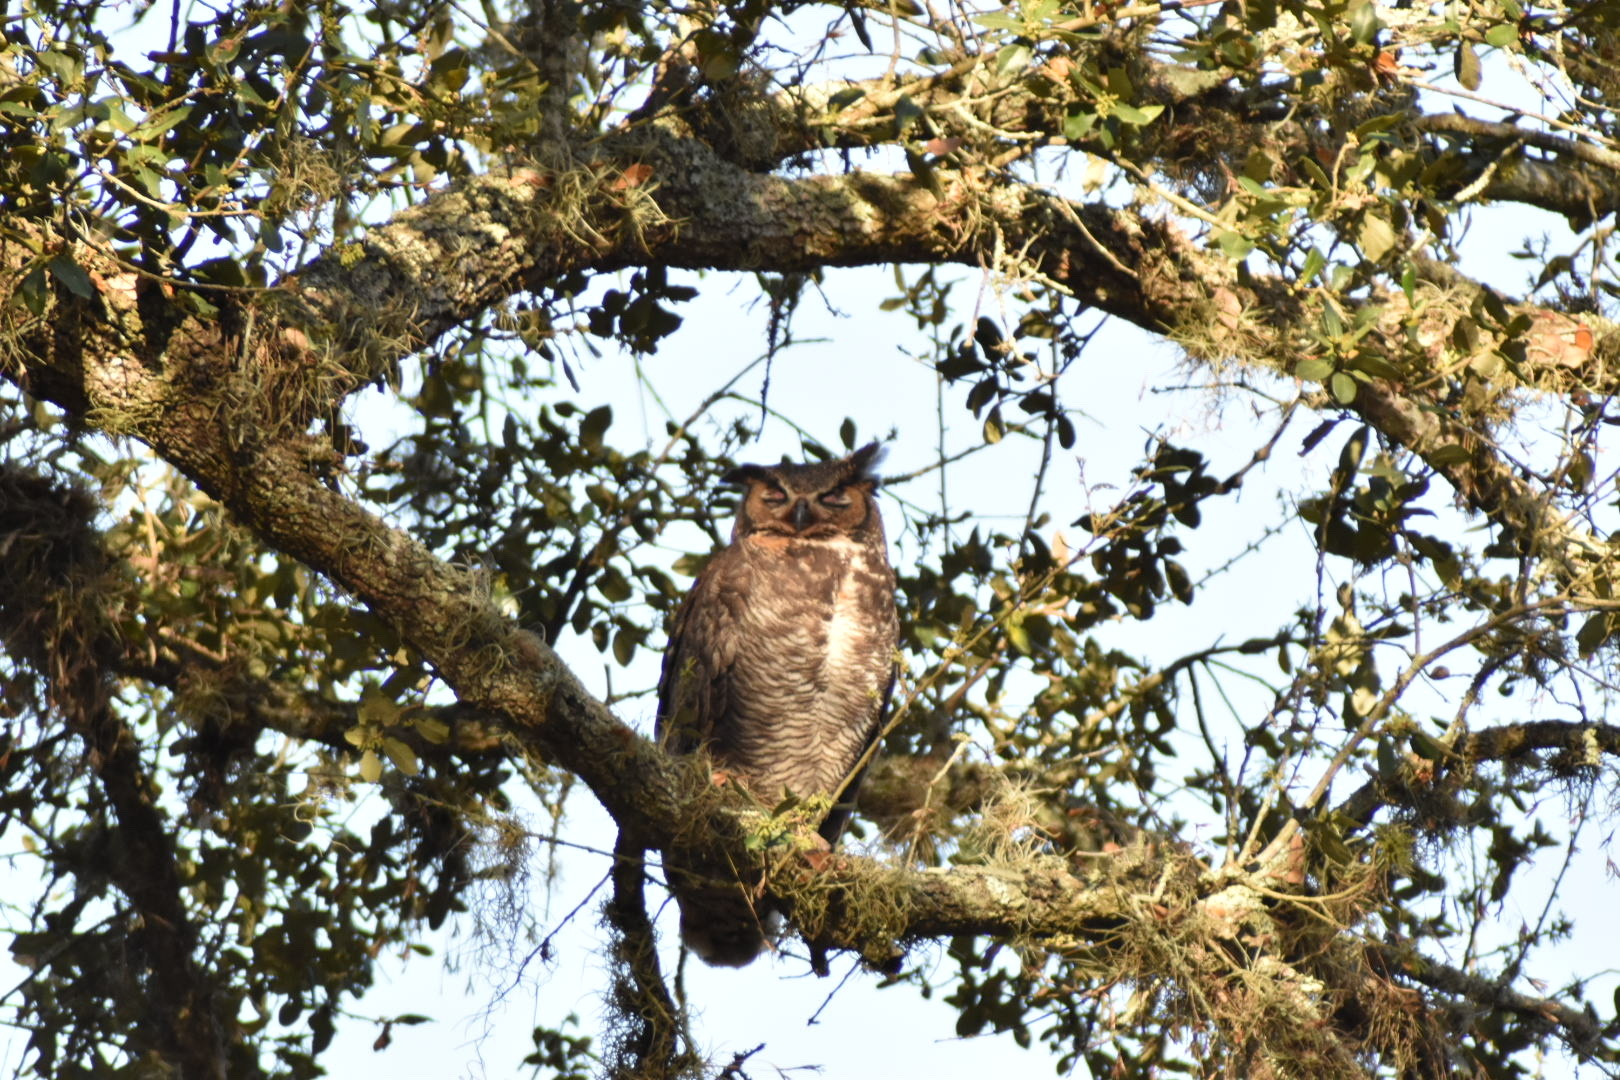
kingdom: Animalia
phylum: Chordata
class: Aves
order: Strigiformes
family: Strigidae
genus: Bubo
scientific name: Bubo virginianus
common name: Great horned owl
